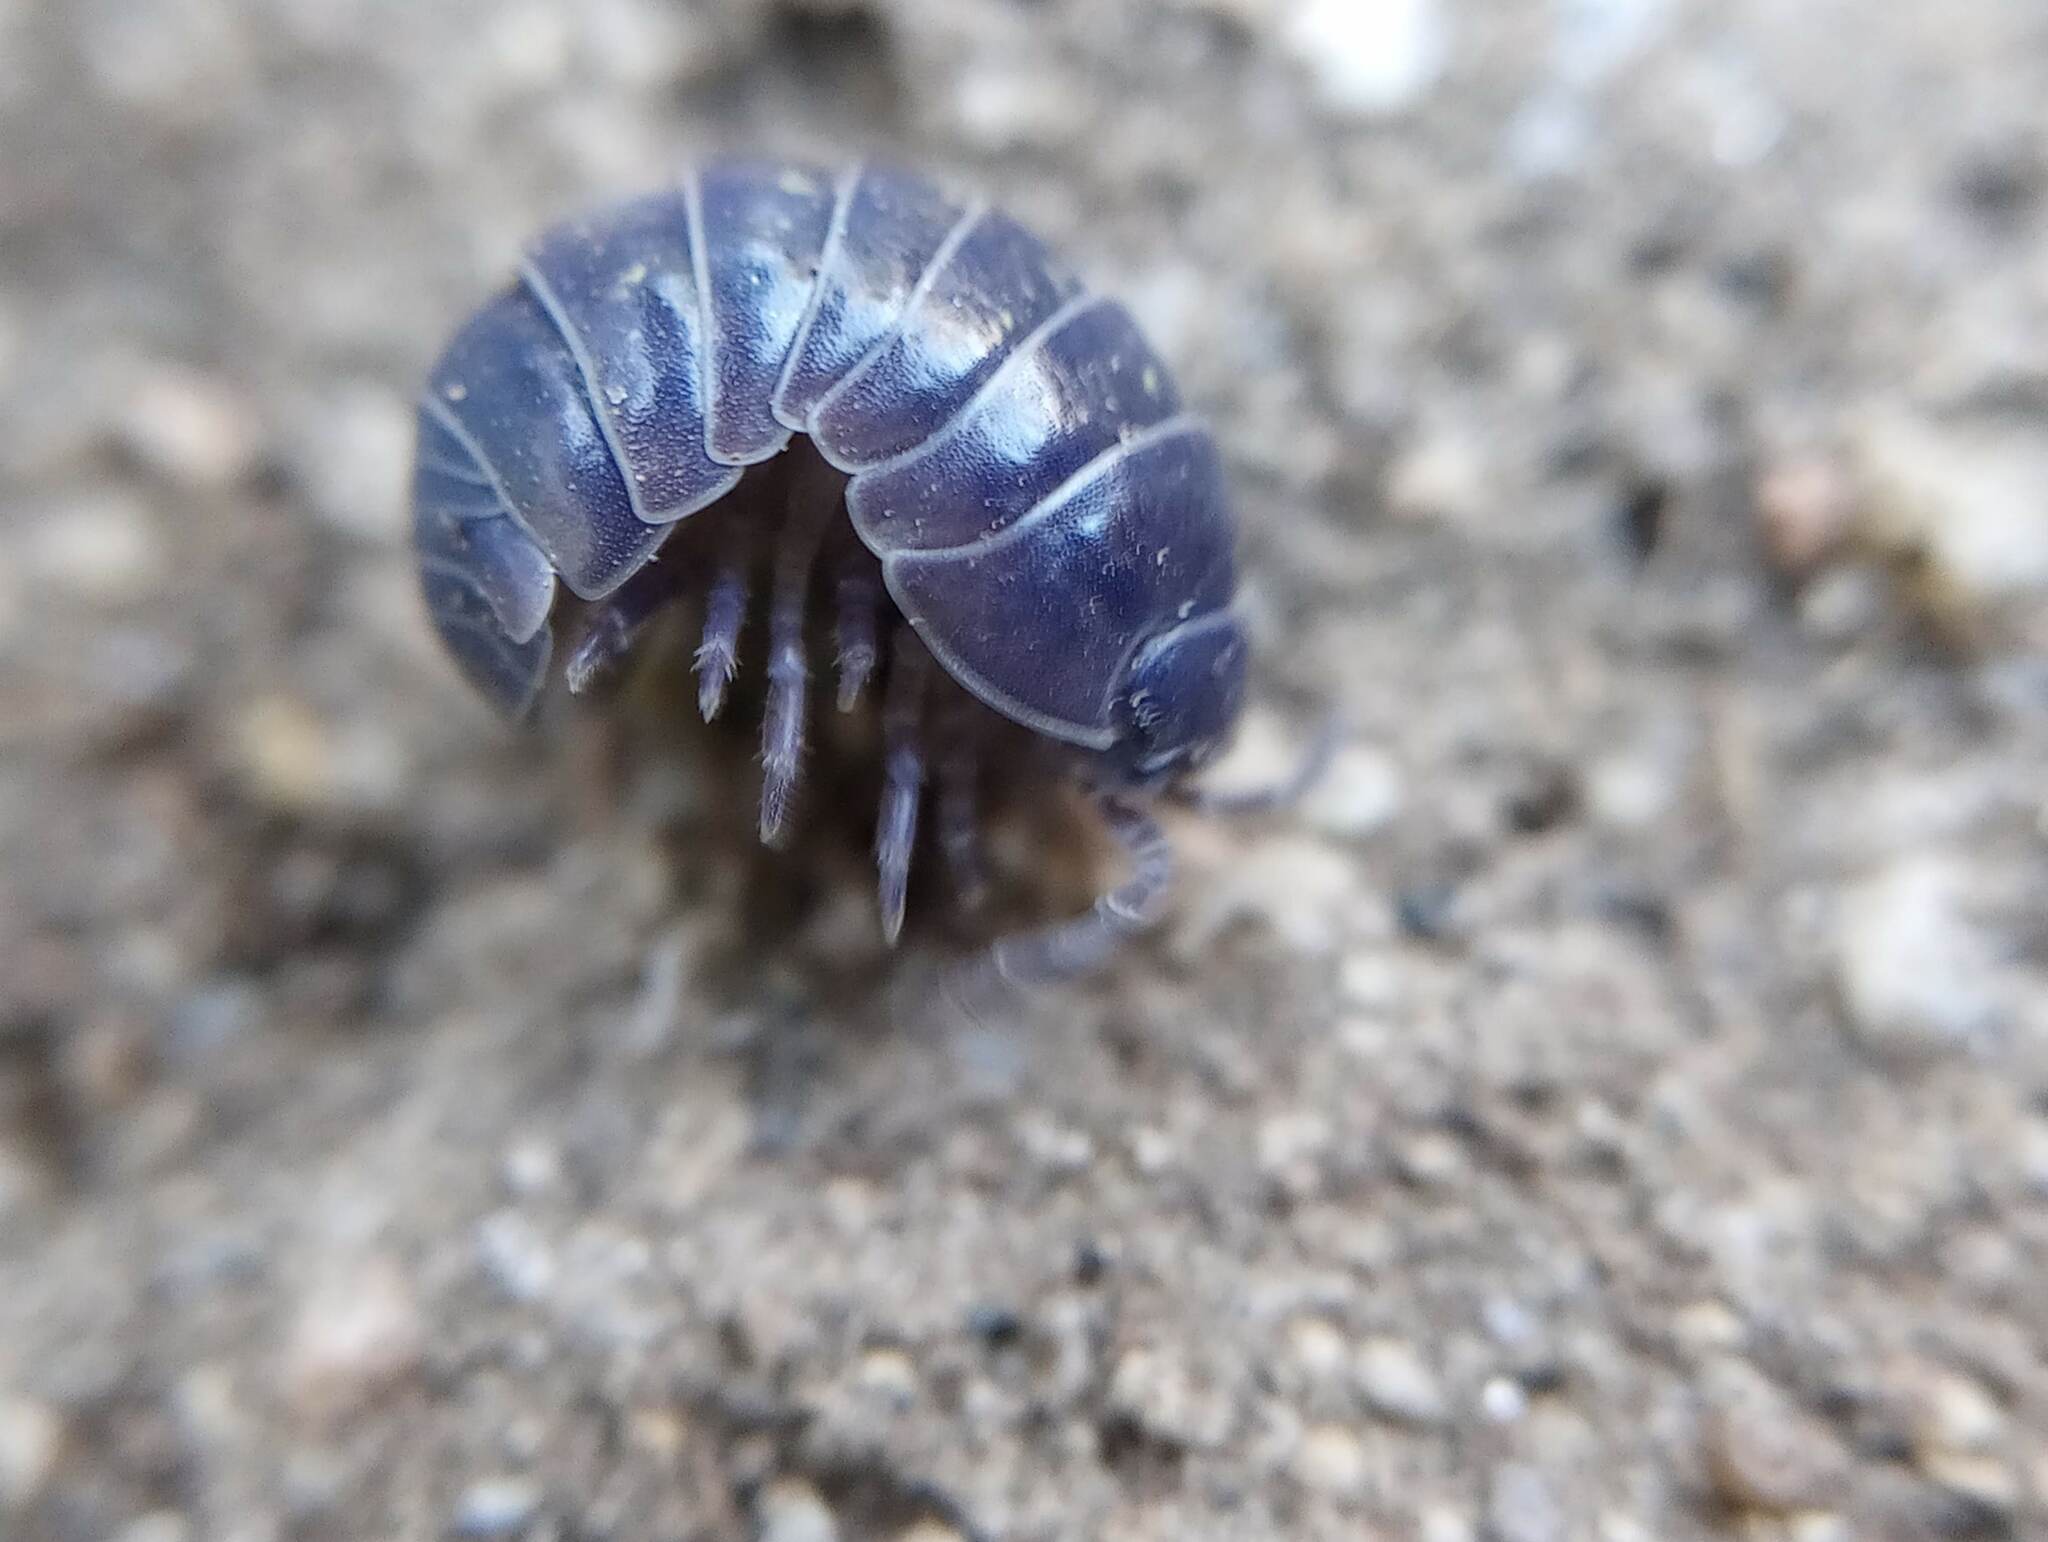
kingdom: Viruses
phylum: Nucleocytoviricota
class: Megaviricetes
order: Pimascovirales
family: Iridoviridae
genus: Iridovirus
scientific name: Iridovirus Invertebrate iridescent virus 31
